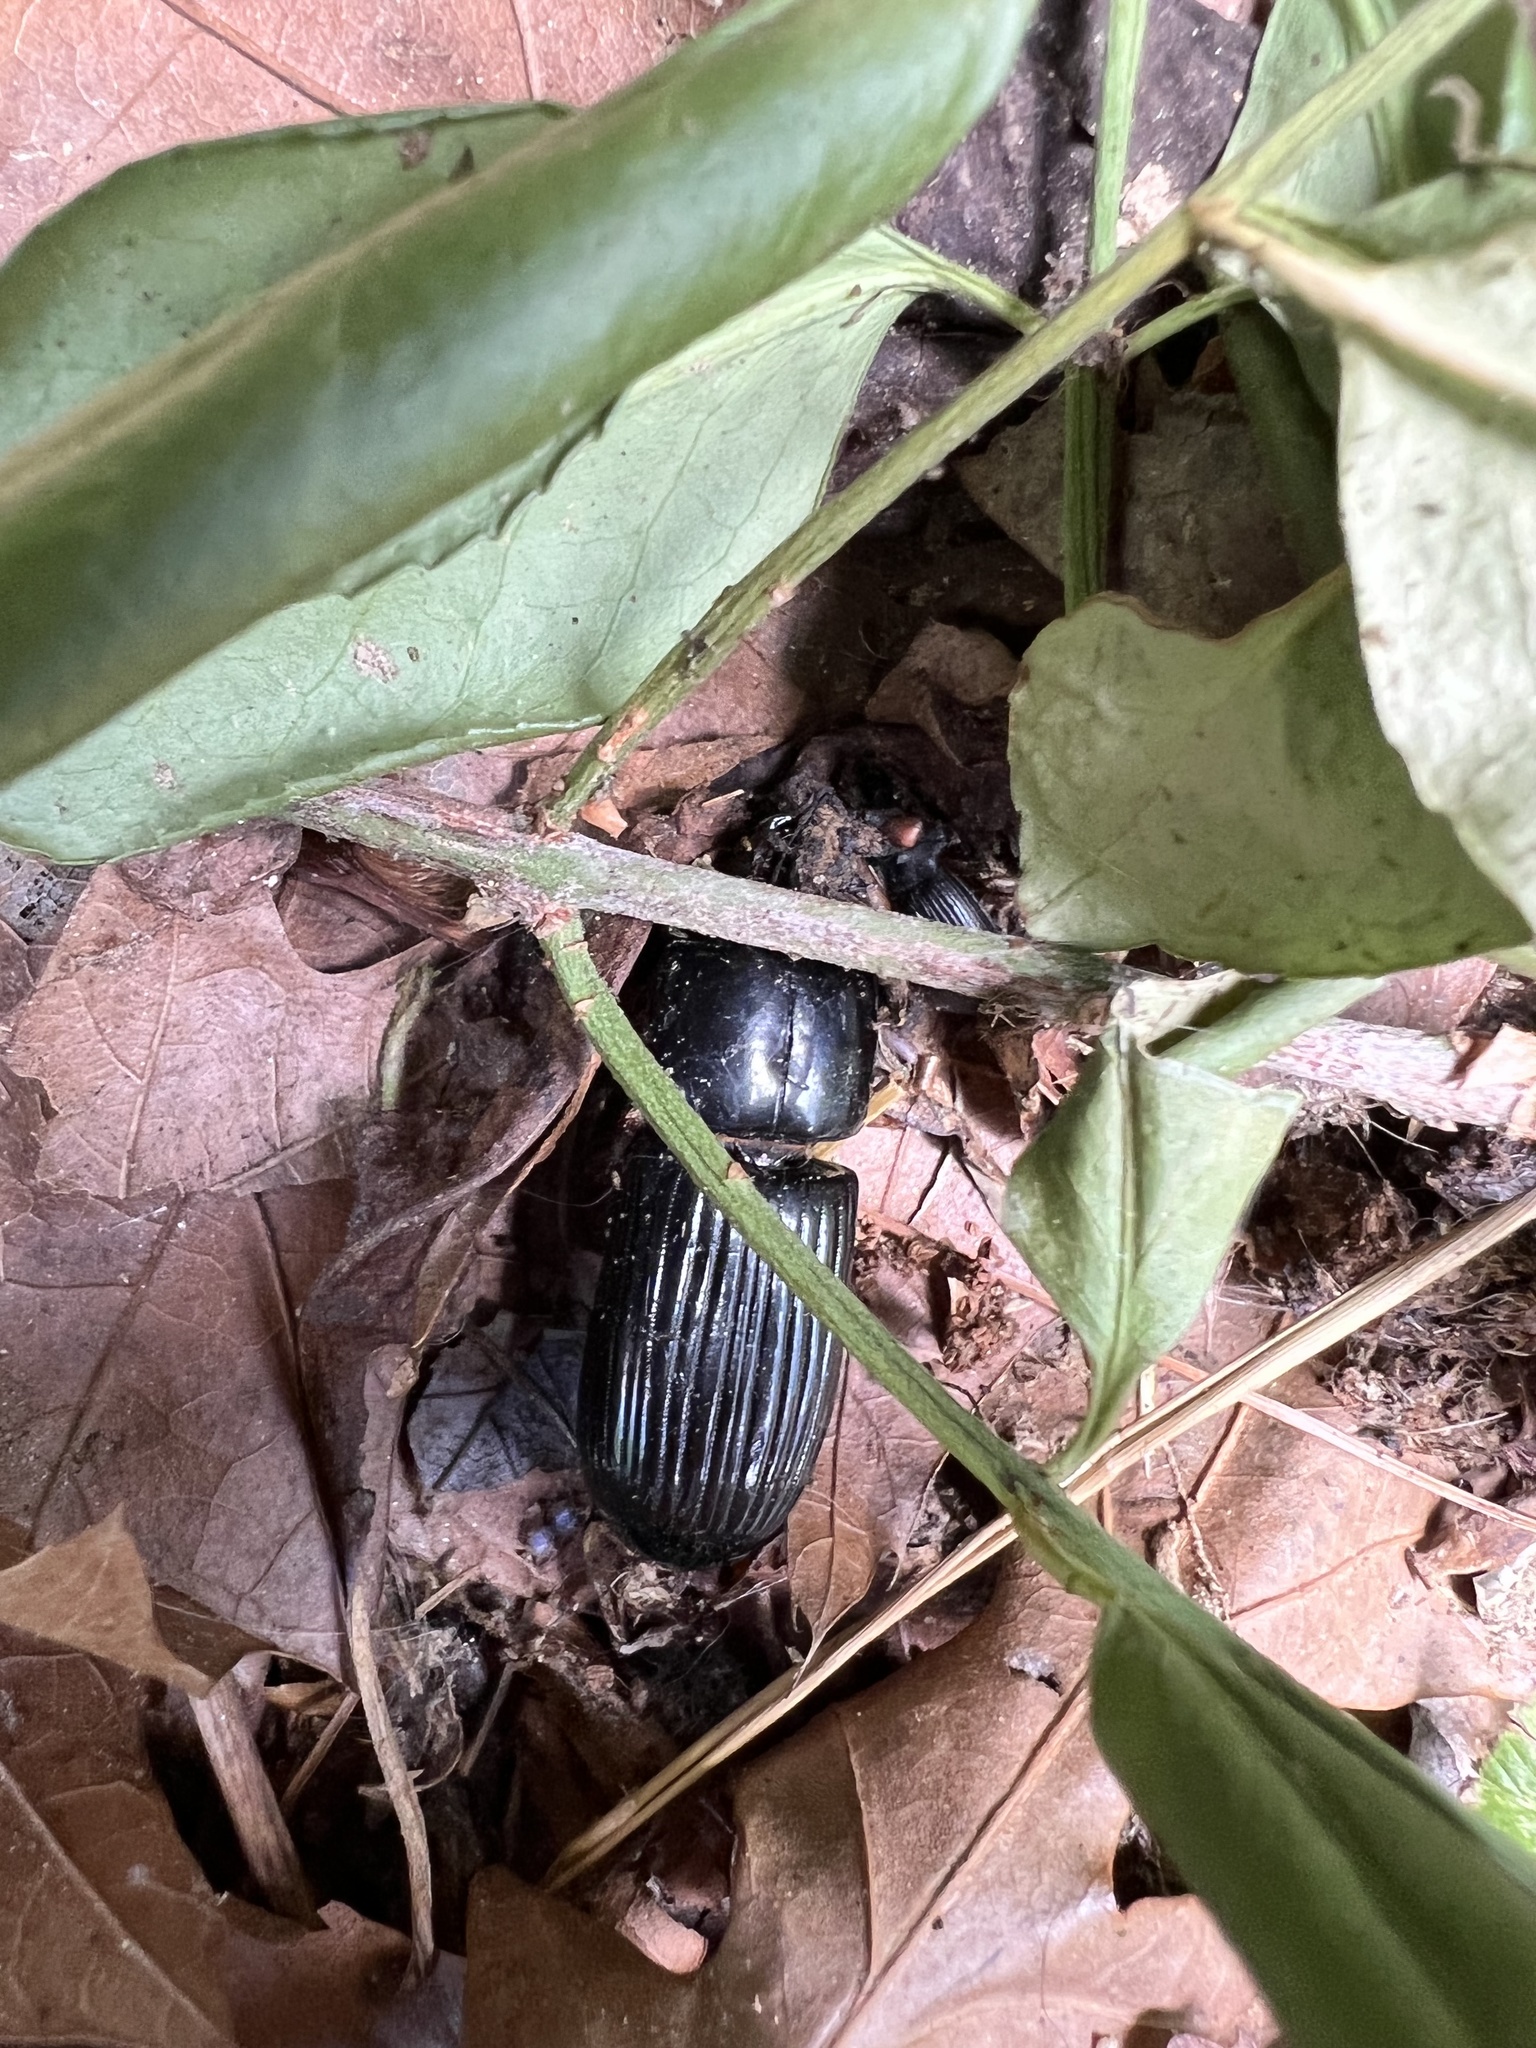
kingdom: Animalia
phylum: Arthropoda
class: Insecta
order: Coleoptera
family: Passalidae
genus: Odontotaenius
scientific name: Odontotaenius disjunctus
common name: Patent leather beetle
